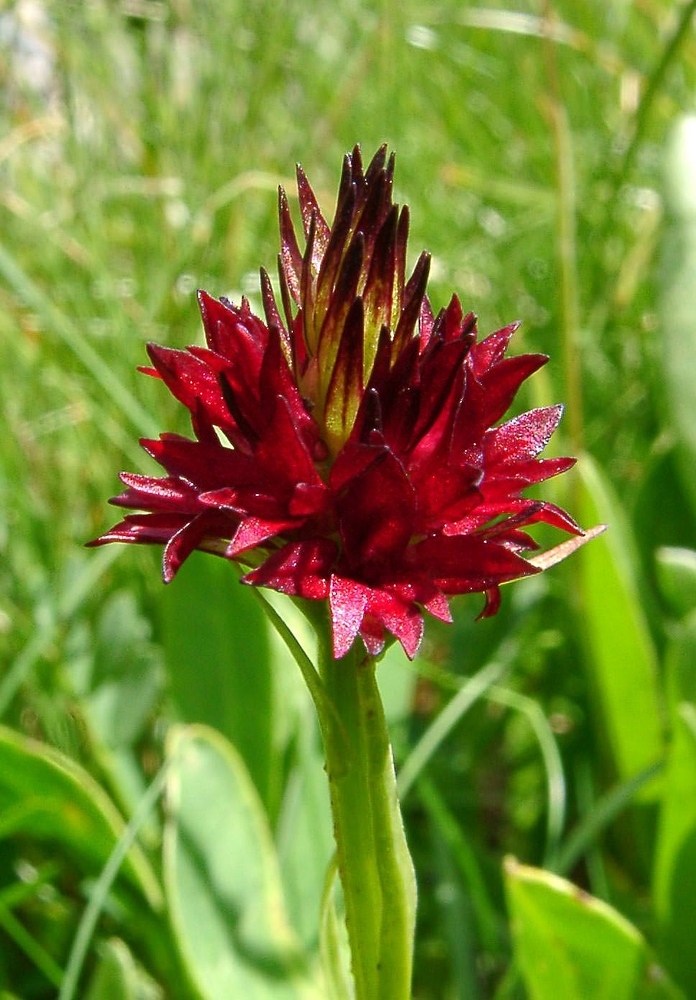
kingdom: Plantae
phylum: Tracheophyta
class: Liliopsida
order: Asparagales
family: Orchidaceae
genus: Gymnadenia
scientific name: Gymnadenia rhellicani
